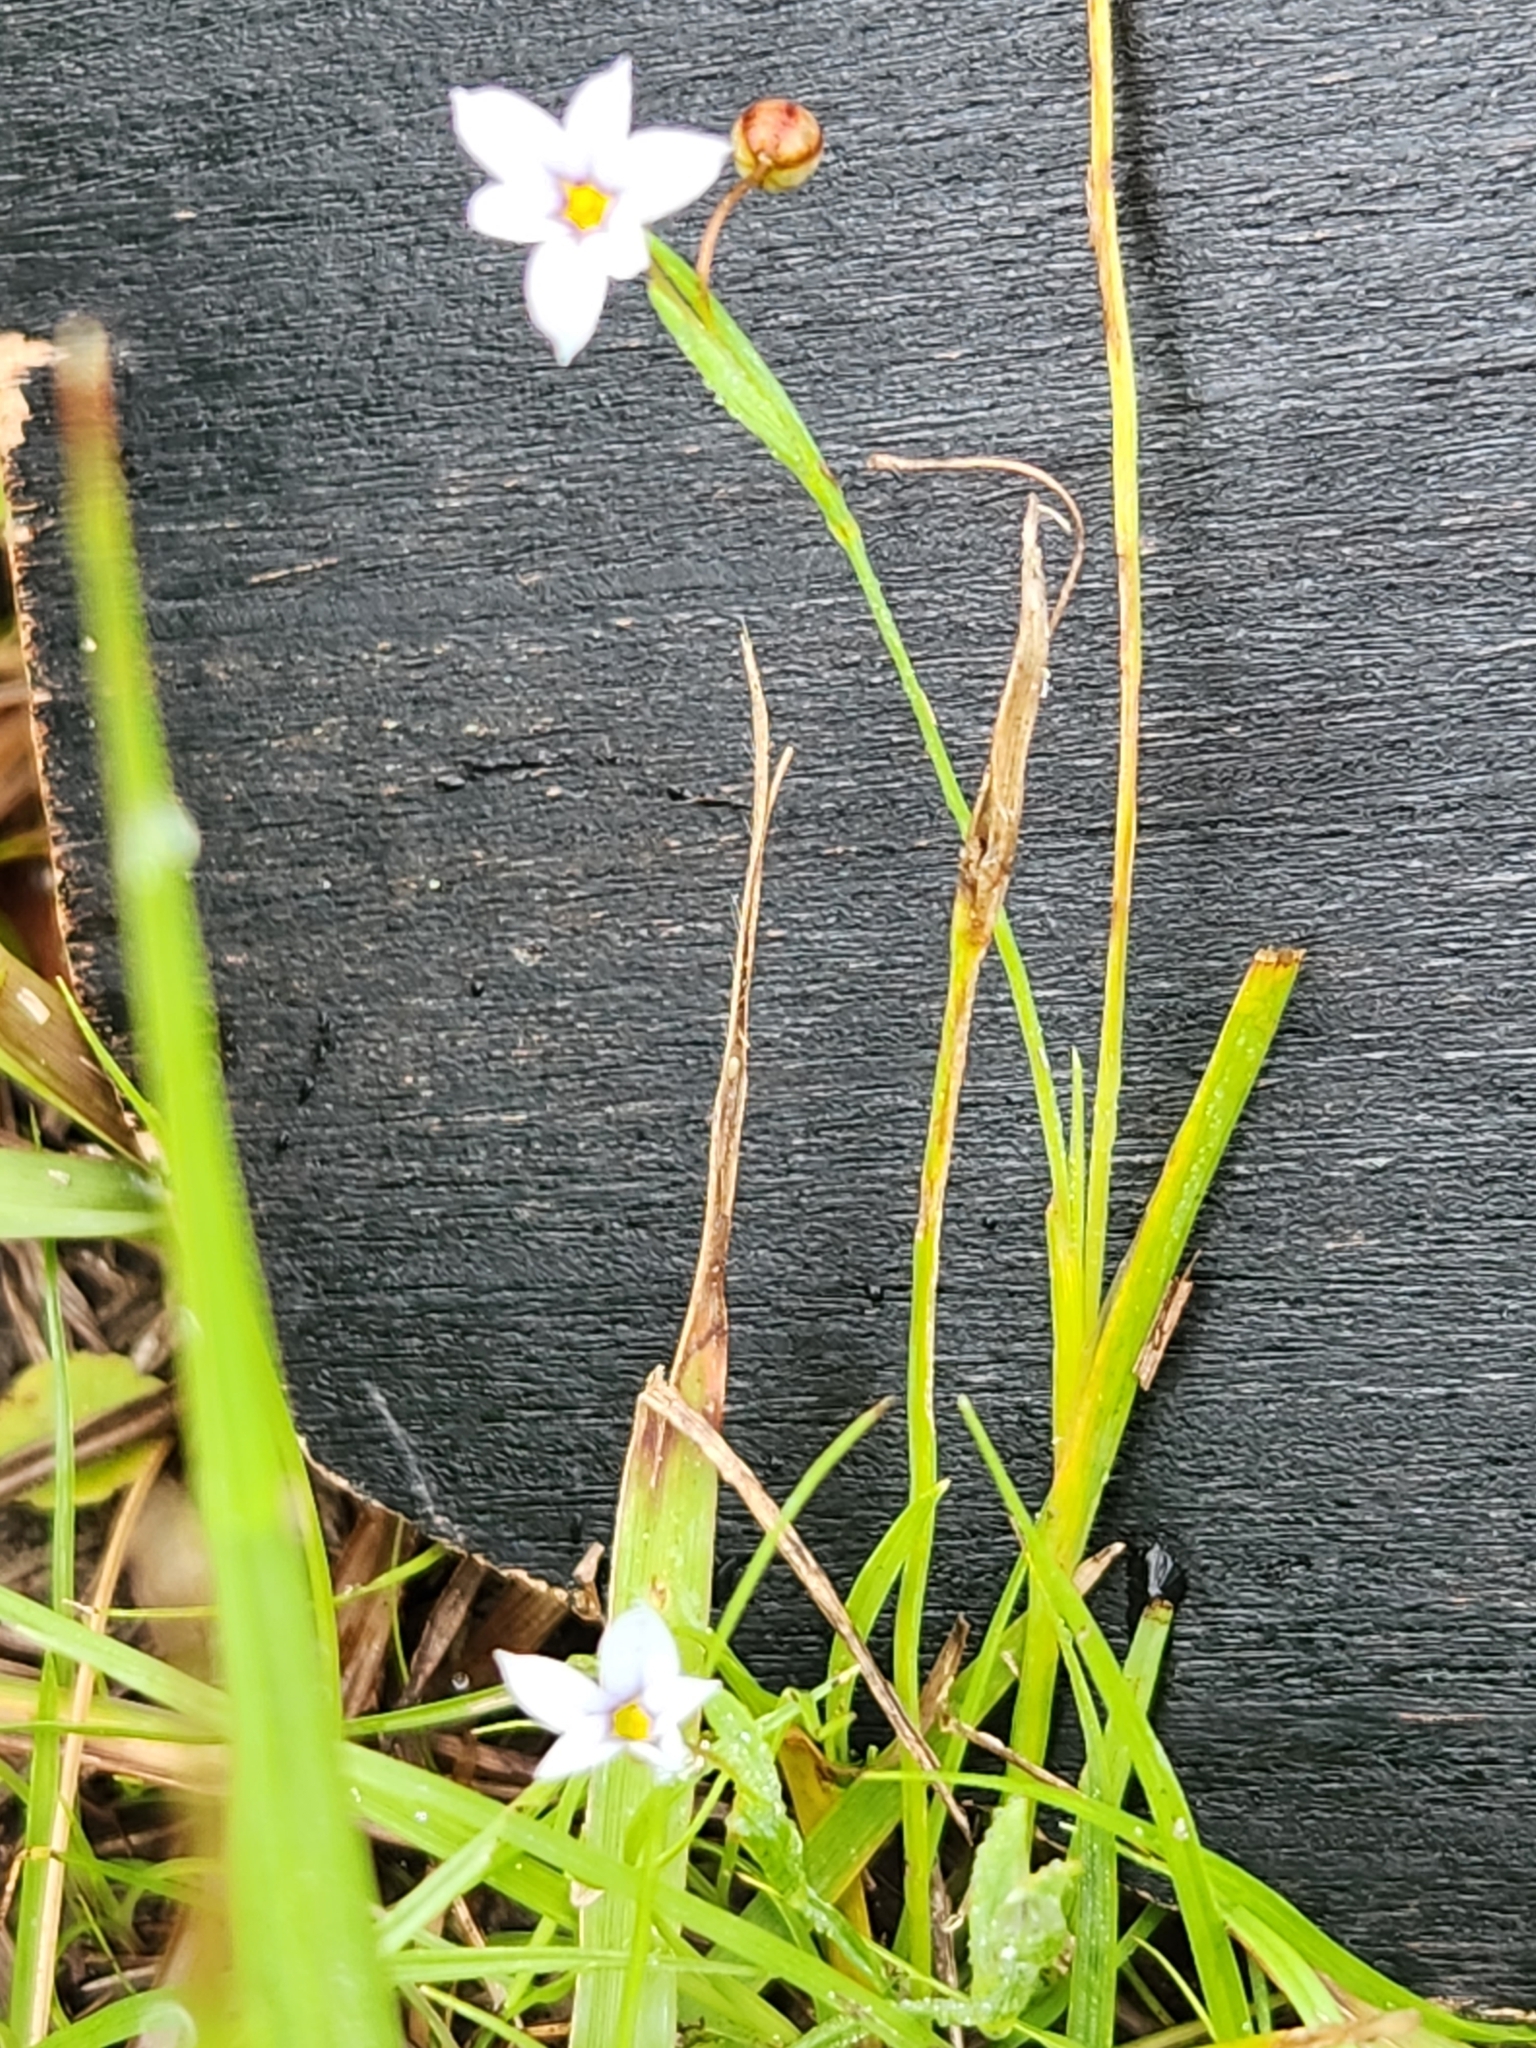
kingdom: Plantae
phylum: Tracheophyta
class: Liliopsida
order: Asparagales
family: Iridaceae
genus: Sisyrinchium
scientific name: Sisyrinchium micranthum
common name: Bermuda pigroot
